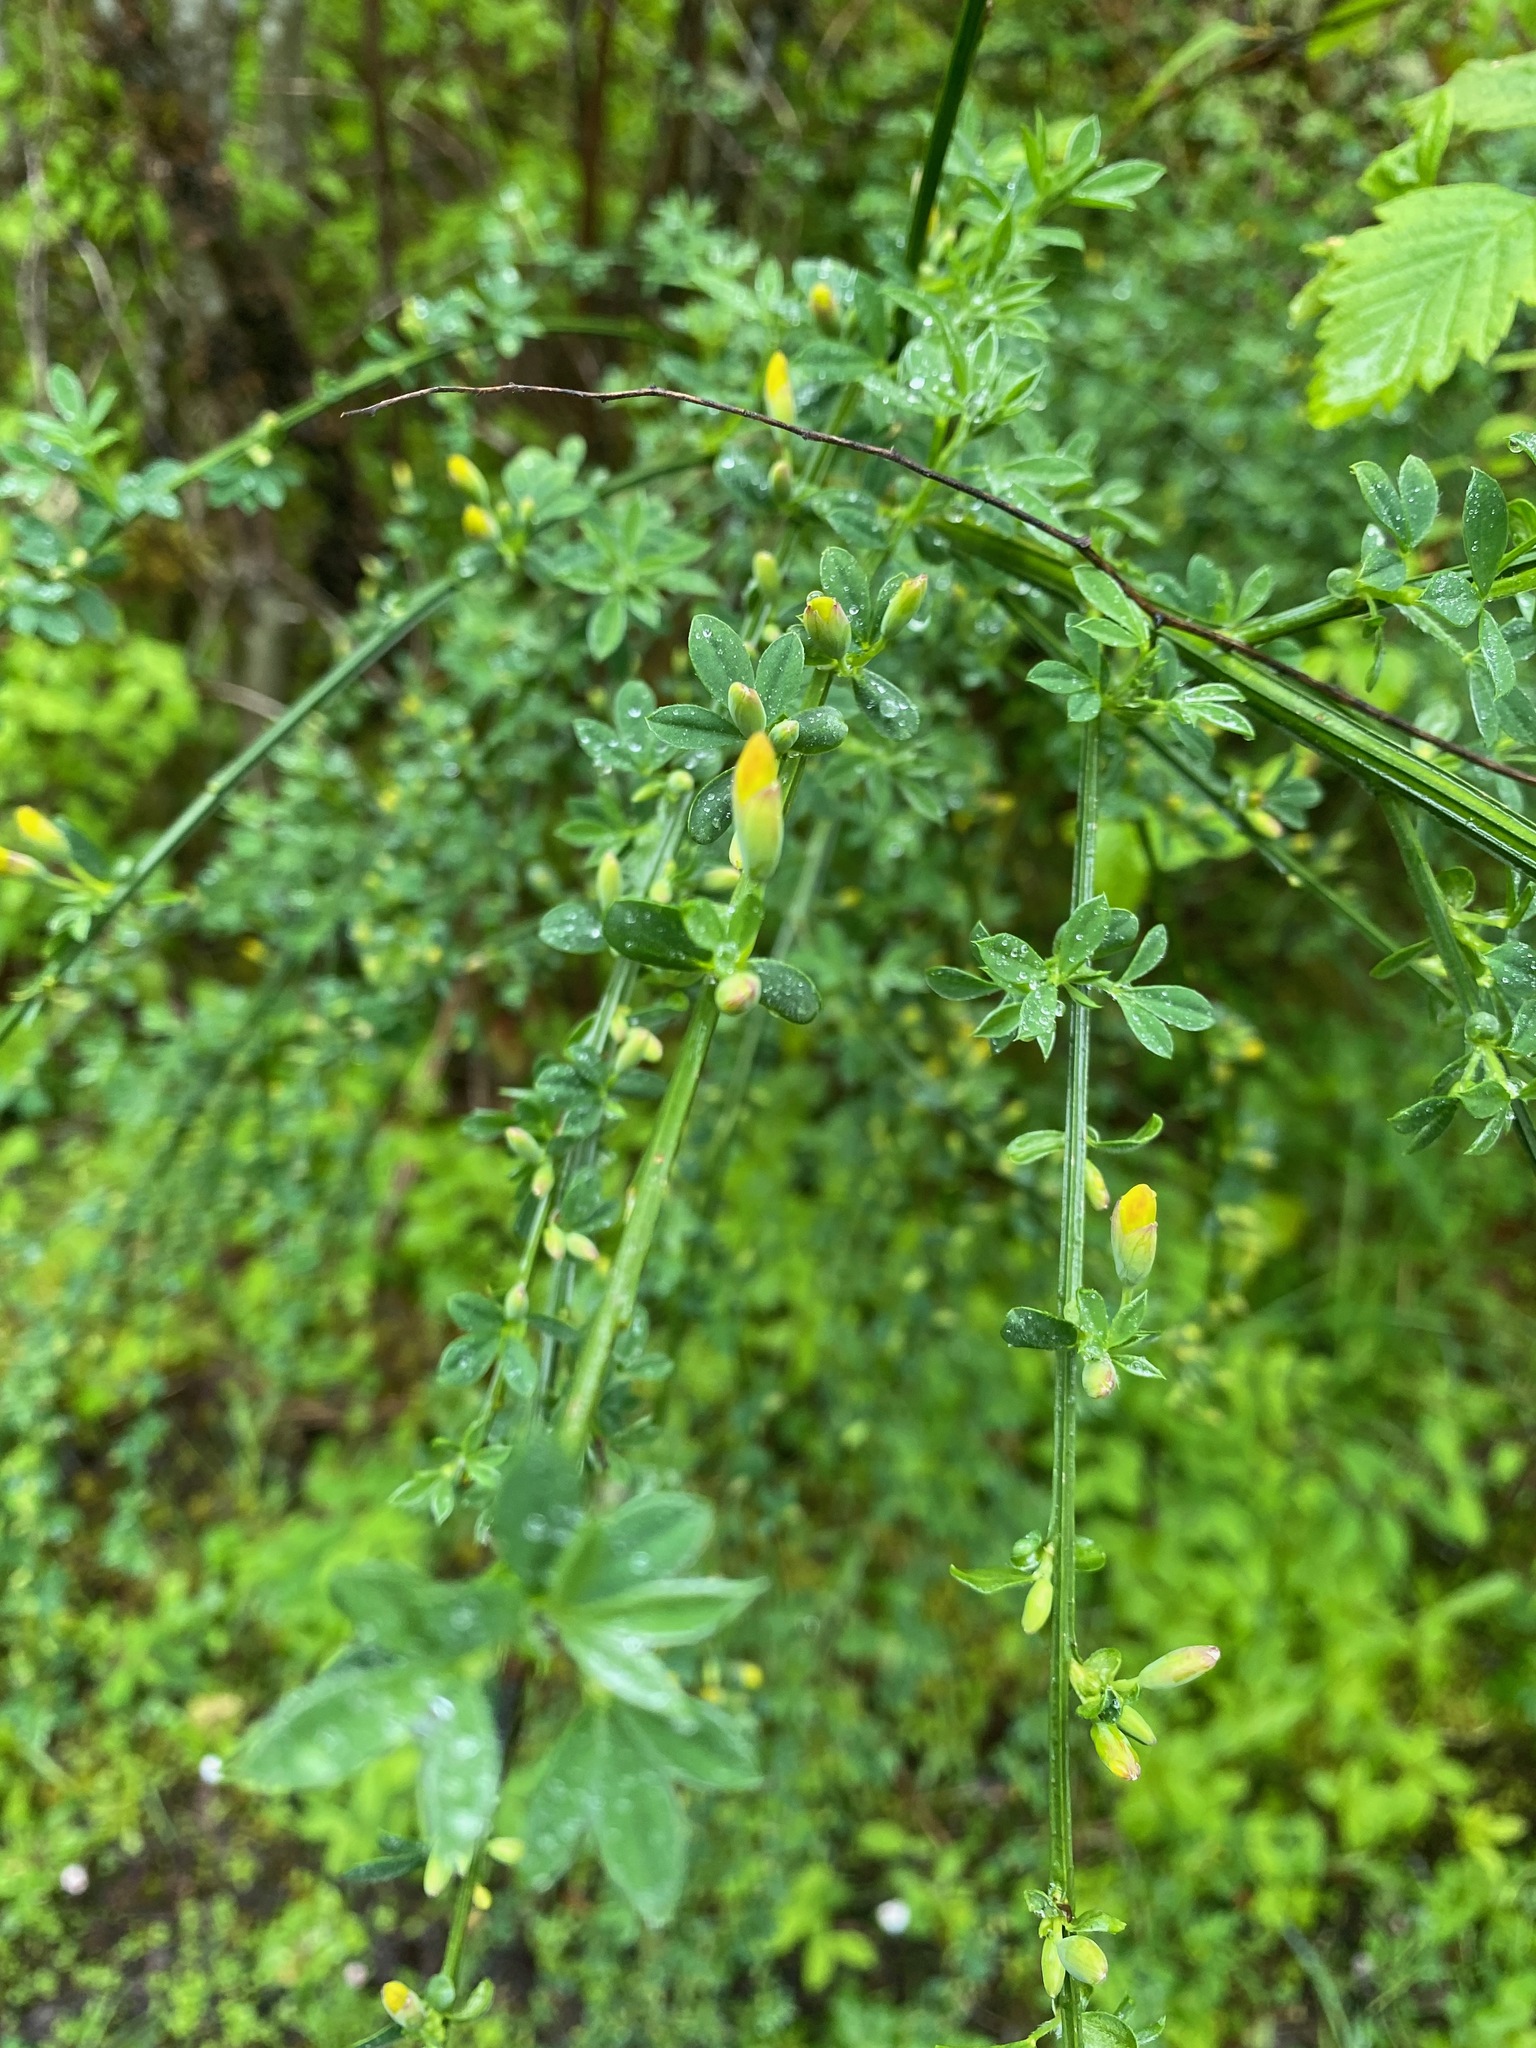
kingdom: Plantae
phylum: Tracheophyta
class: Magnoliopsida
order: Fabales
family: Fabaceae
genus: Cytisus
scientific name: Cytisus scoparius
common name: Scotch broom
